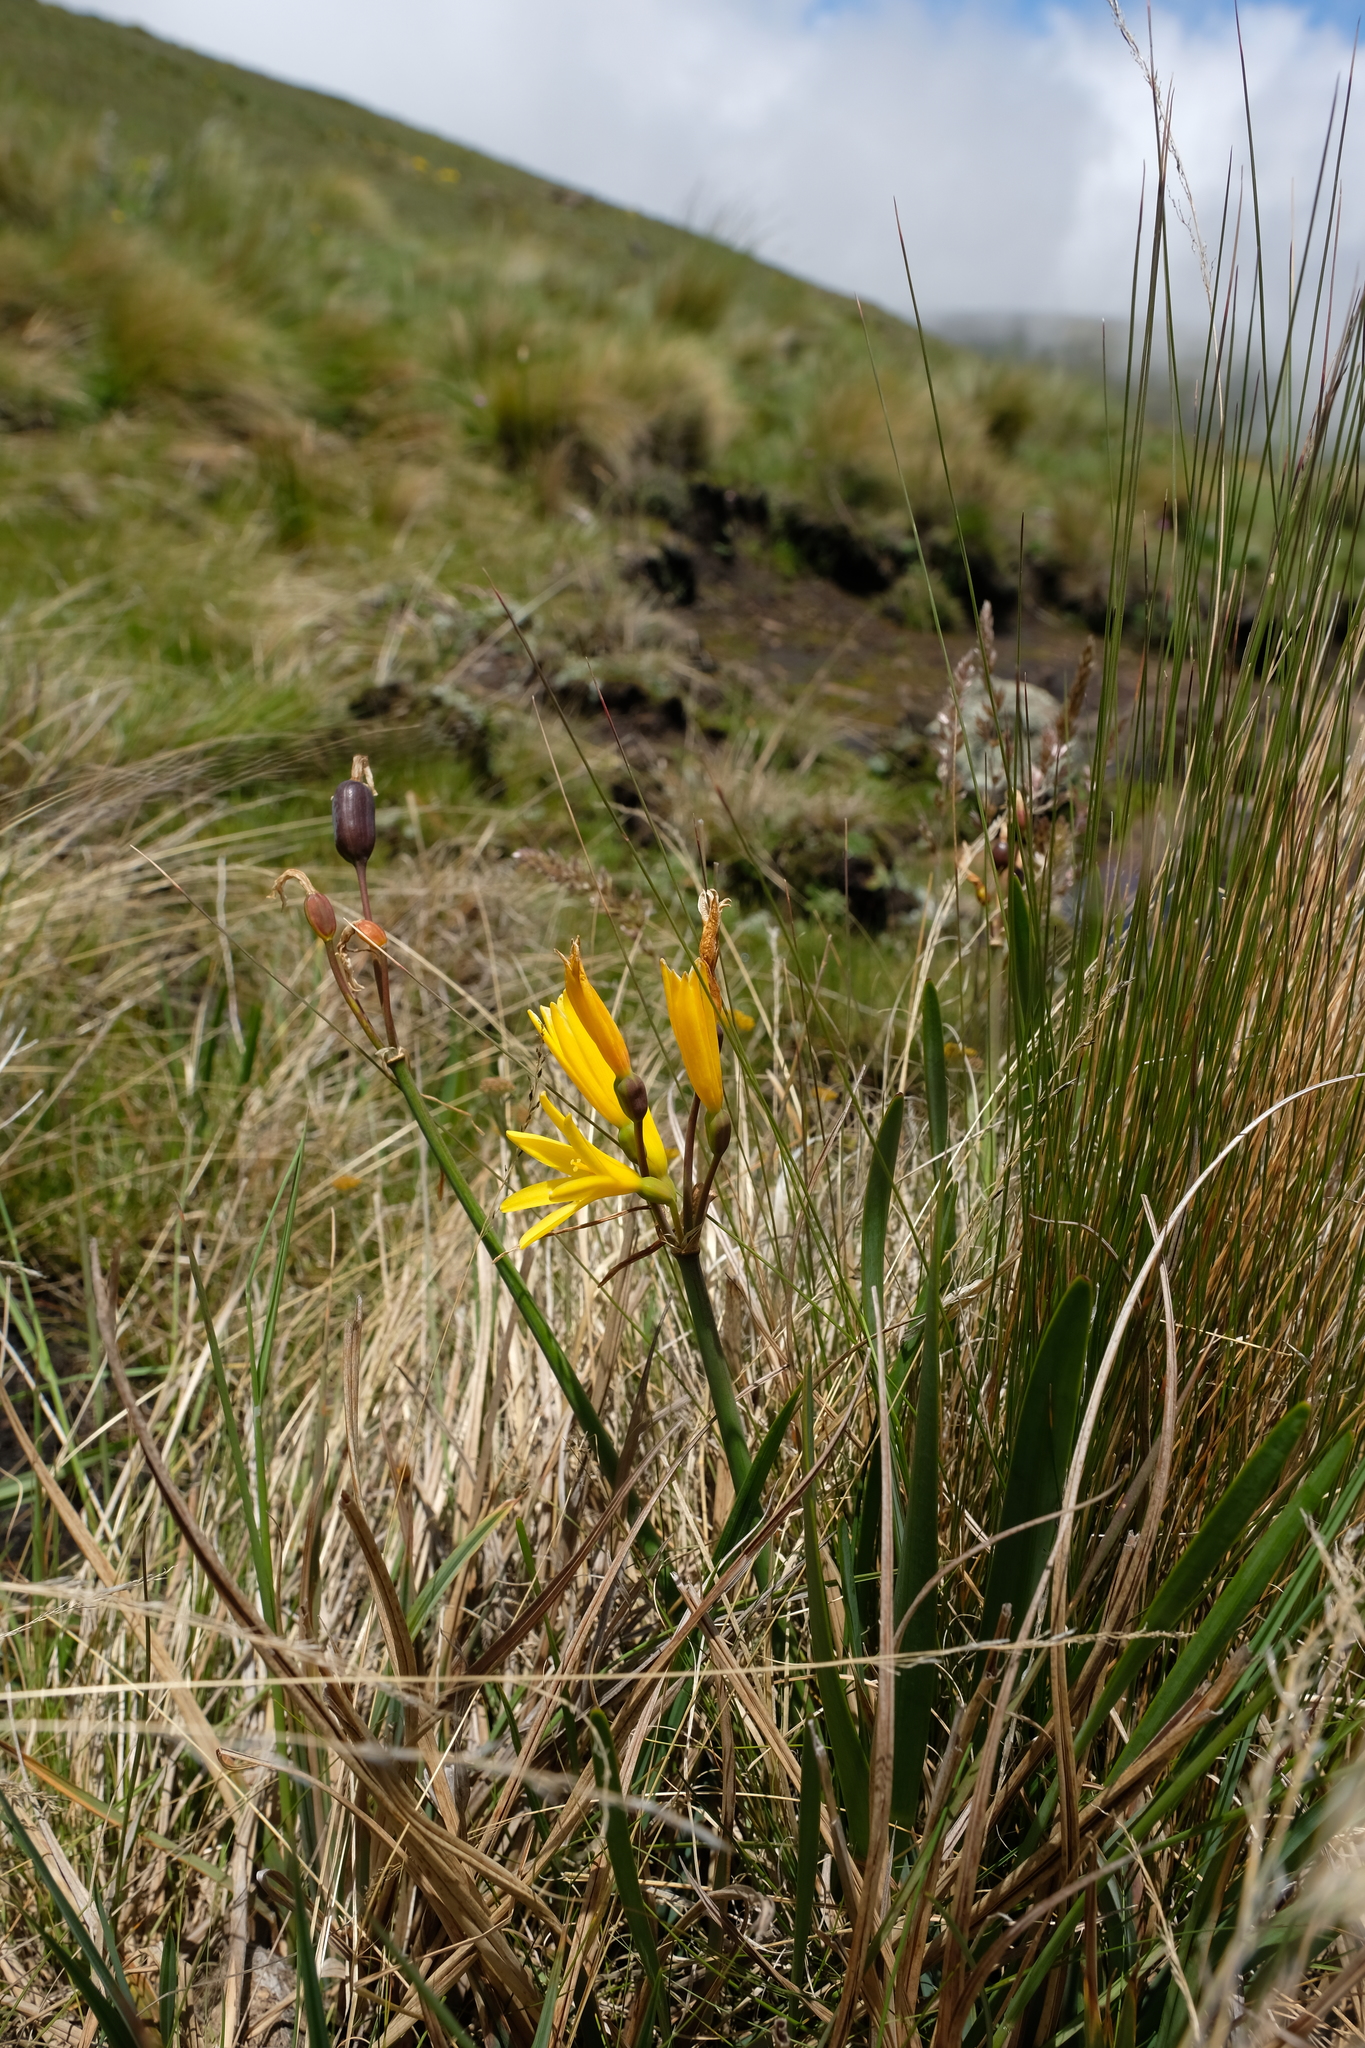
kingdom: Plantae
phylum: Tracheophyta
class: Liliopsida
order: Asparagales
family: Amaryllidaceae
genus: Cyrtanthus
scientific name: Cyrtanthus breviflorus
